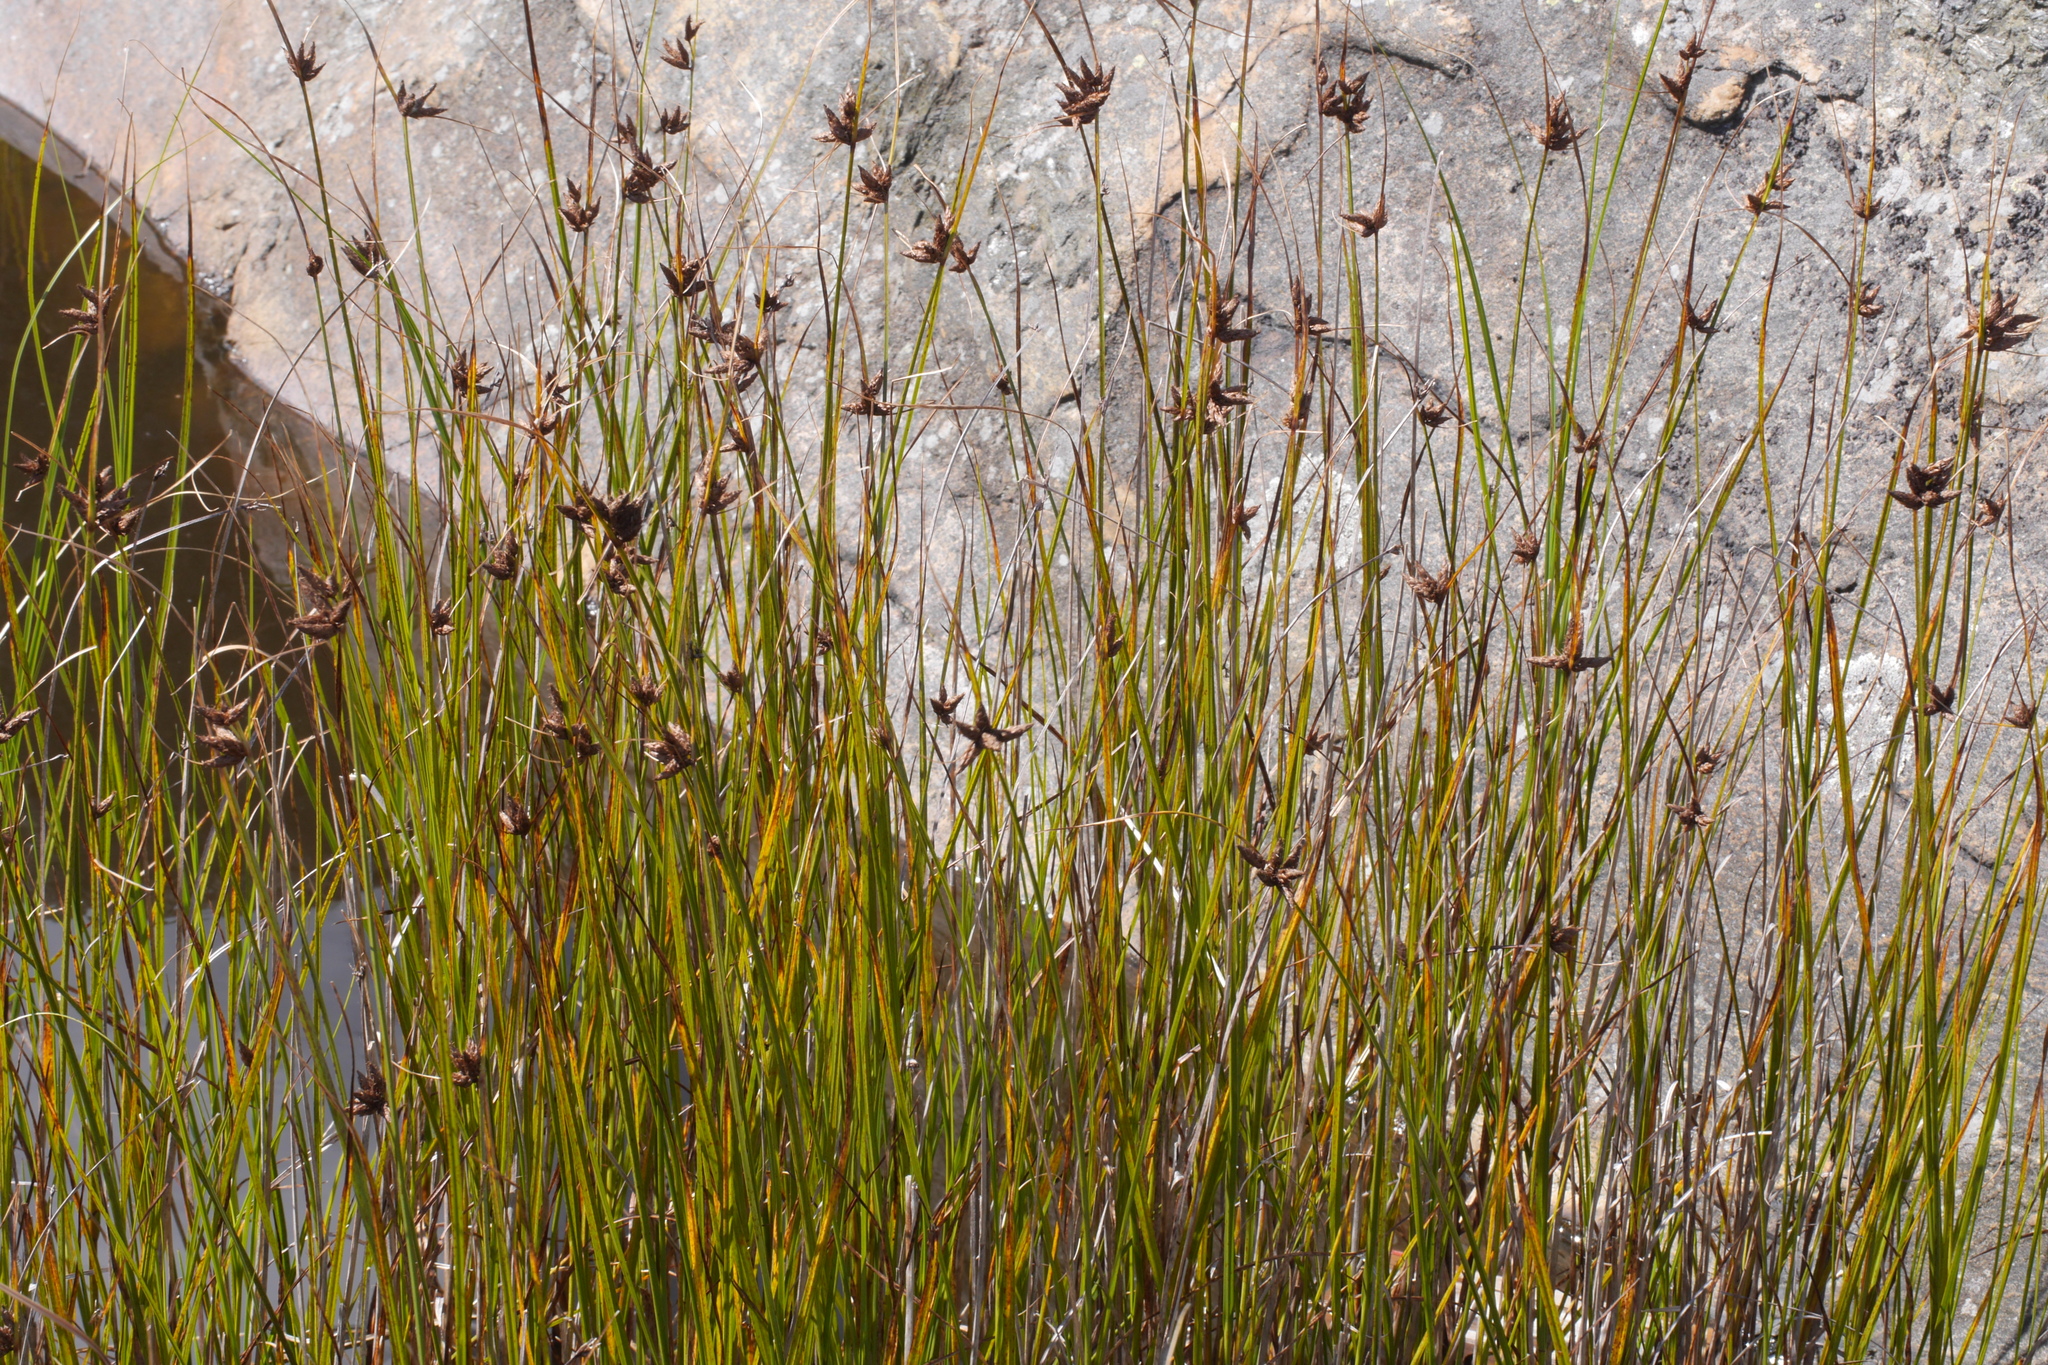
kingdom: Plantae
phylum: Tracheophyta
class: Liliopsida
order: Poales
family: Cyperaceae
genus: Bolboschoenus
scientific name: Bolboschoenus maritimus
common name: Sea club-rush
